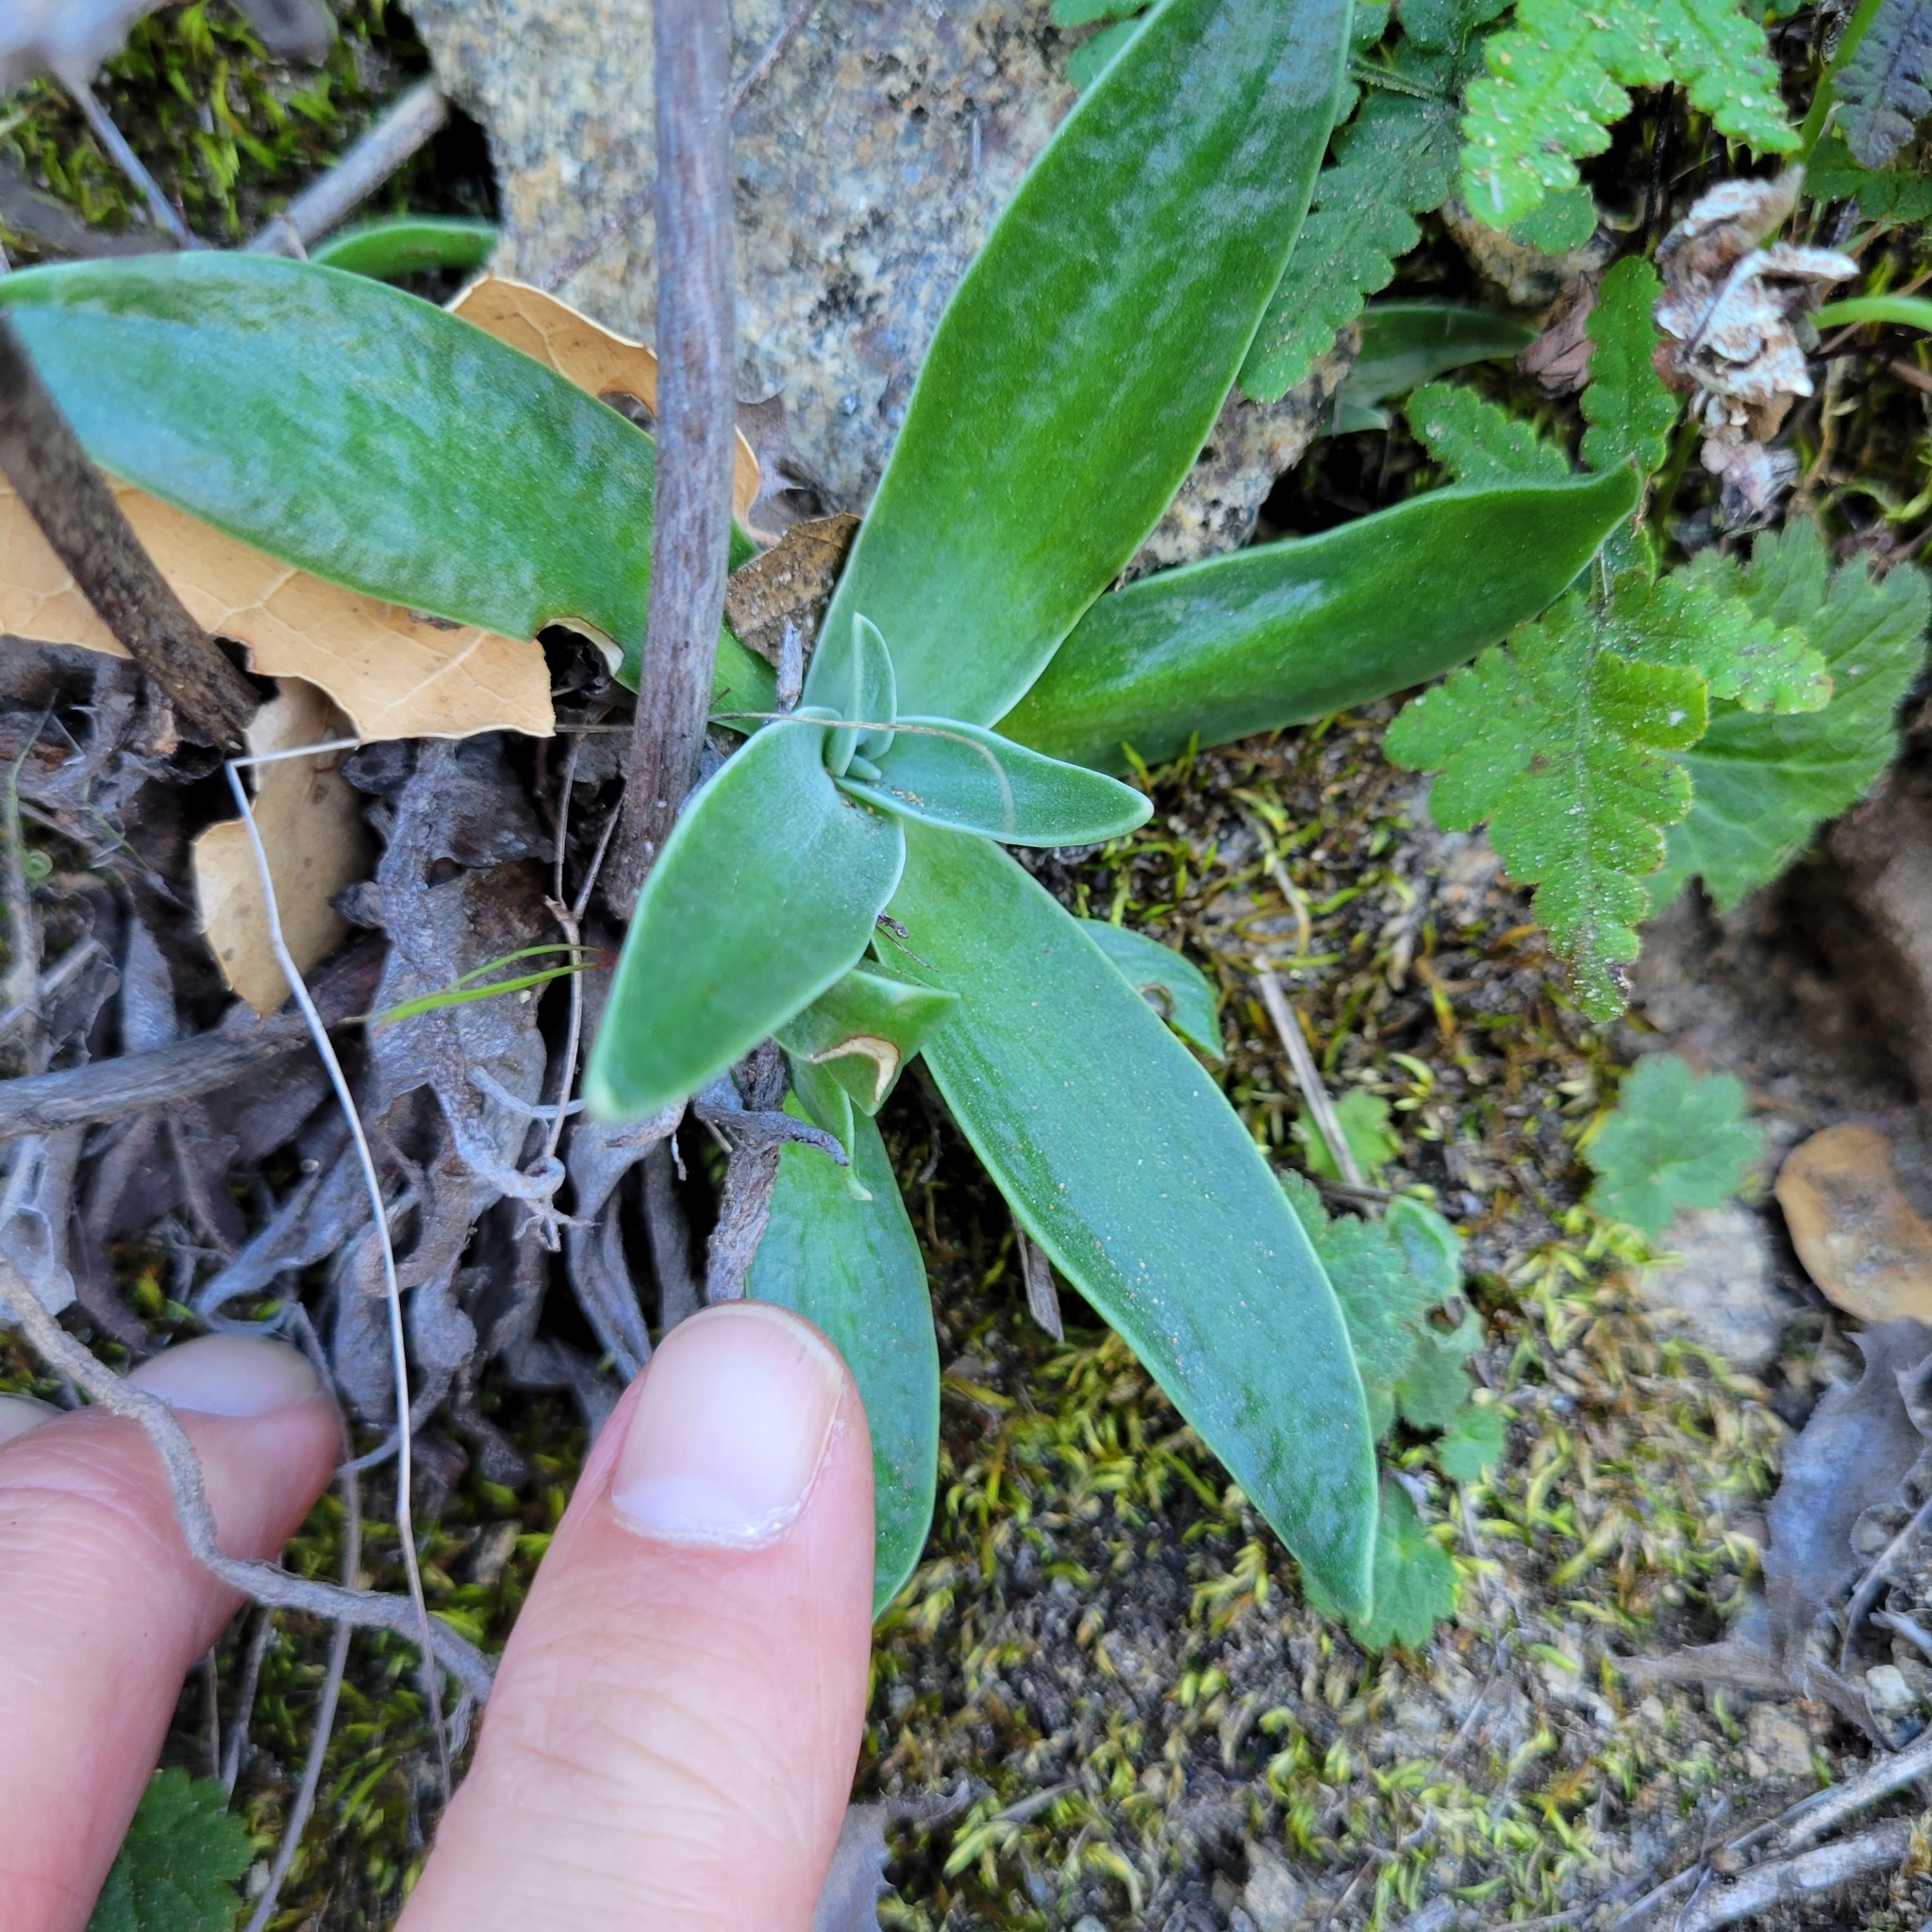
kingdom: Plantae
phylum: Tracheophyta
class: Magnoliopsida
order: Saxifragales
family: Crassulaceae
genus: Dudleya
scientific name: Dudleya lanceolata
